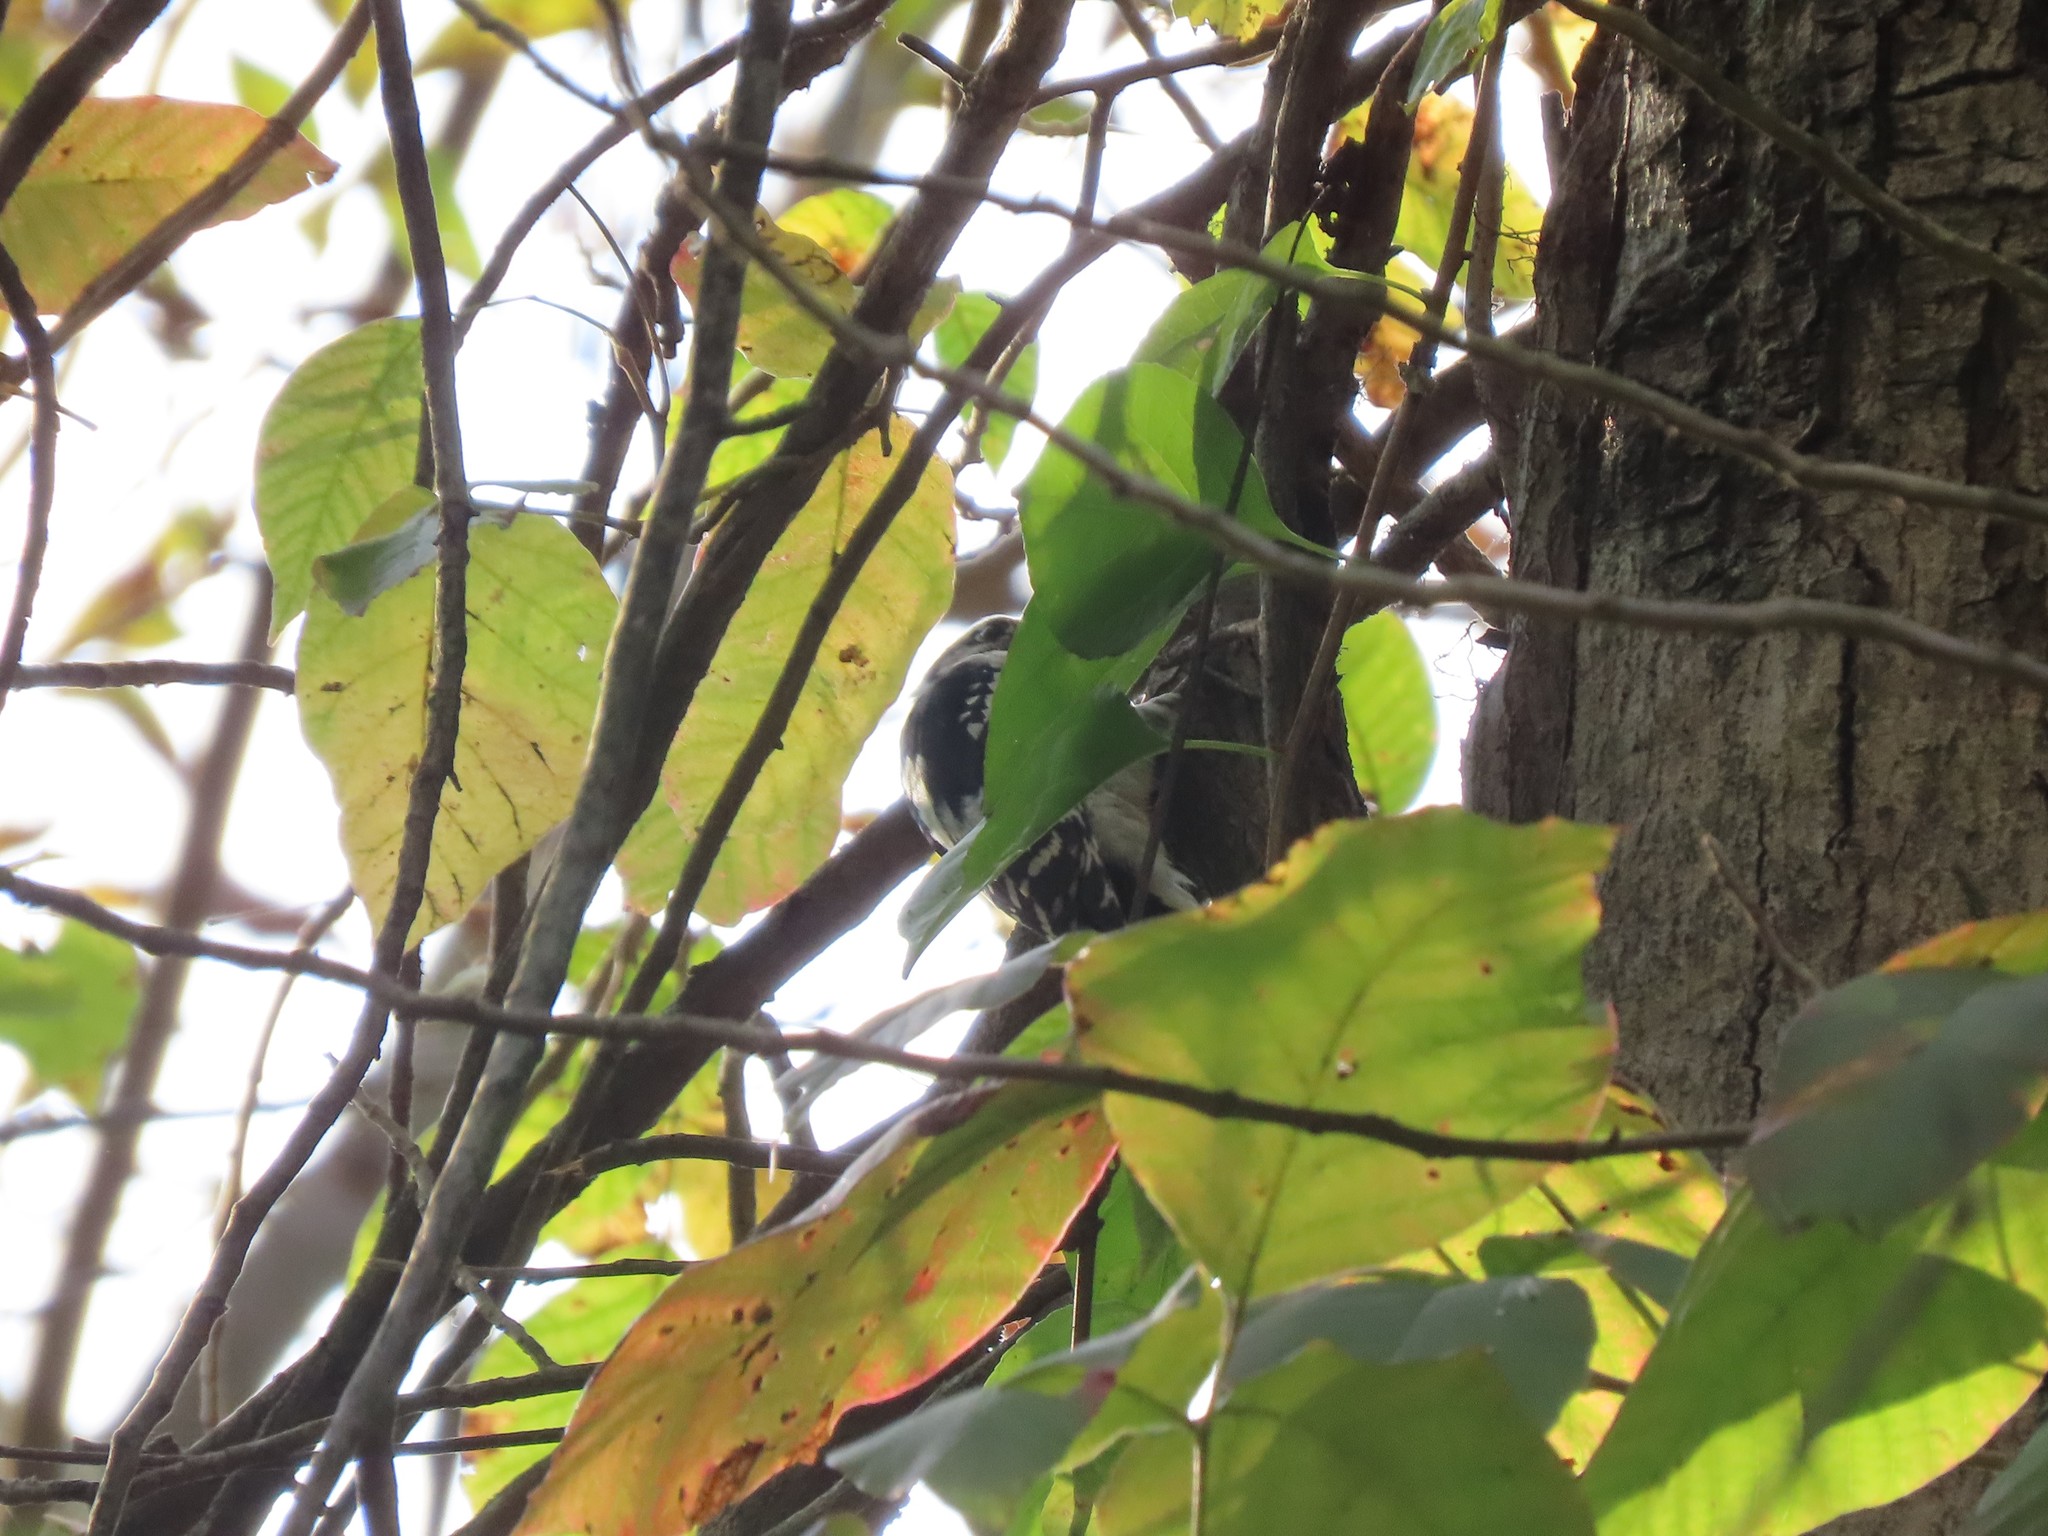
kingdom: Animalia
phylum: Chordata
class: Aves
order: Piciformes
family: Picidae
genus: Dryobates
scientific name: Dryobates pubescens
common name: Downy woodpecker
